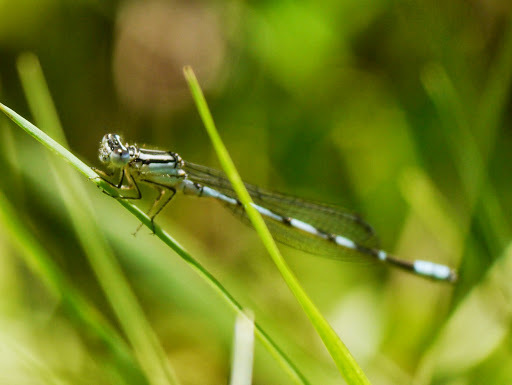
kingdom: Animalia
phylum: Arthropoda
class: Insecta
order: Odonata
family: Coenagrionidae
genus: Enallagma
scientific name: Enallagma durum
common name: Big bluet
